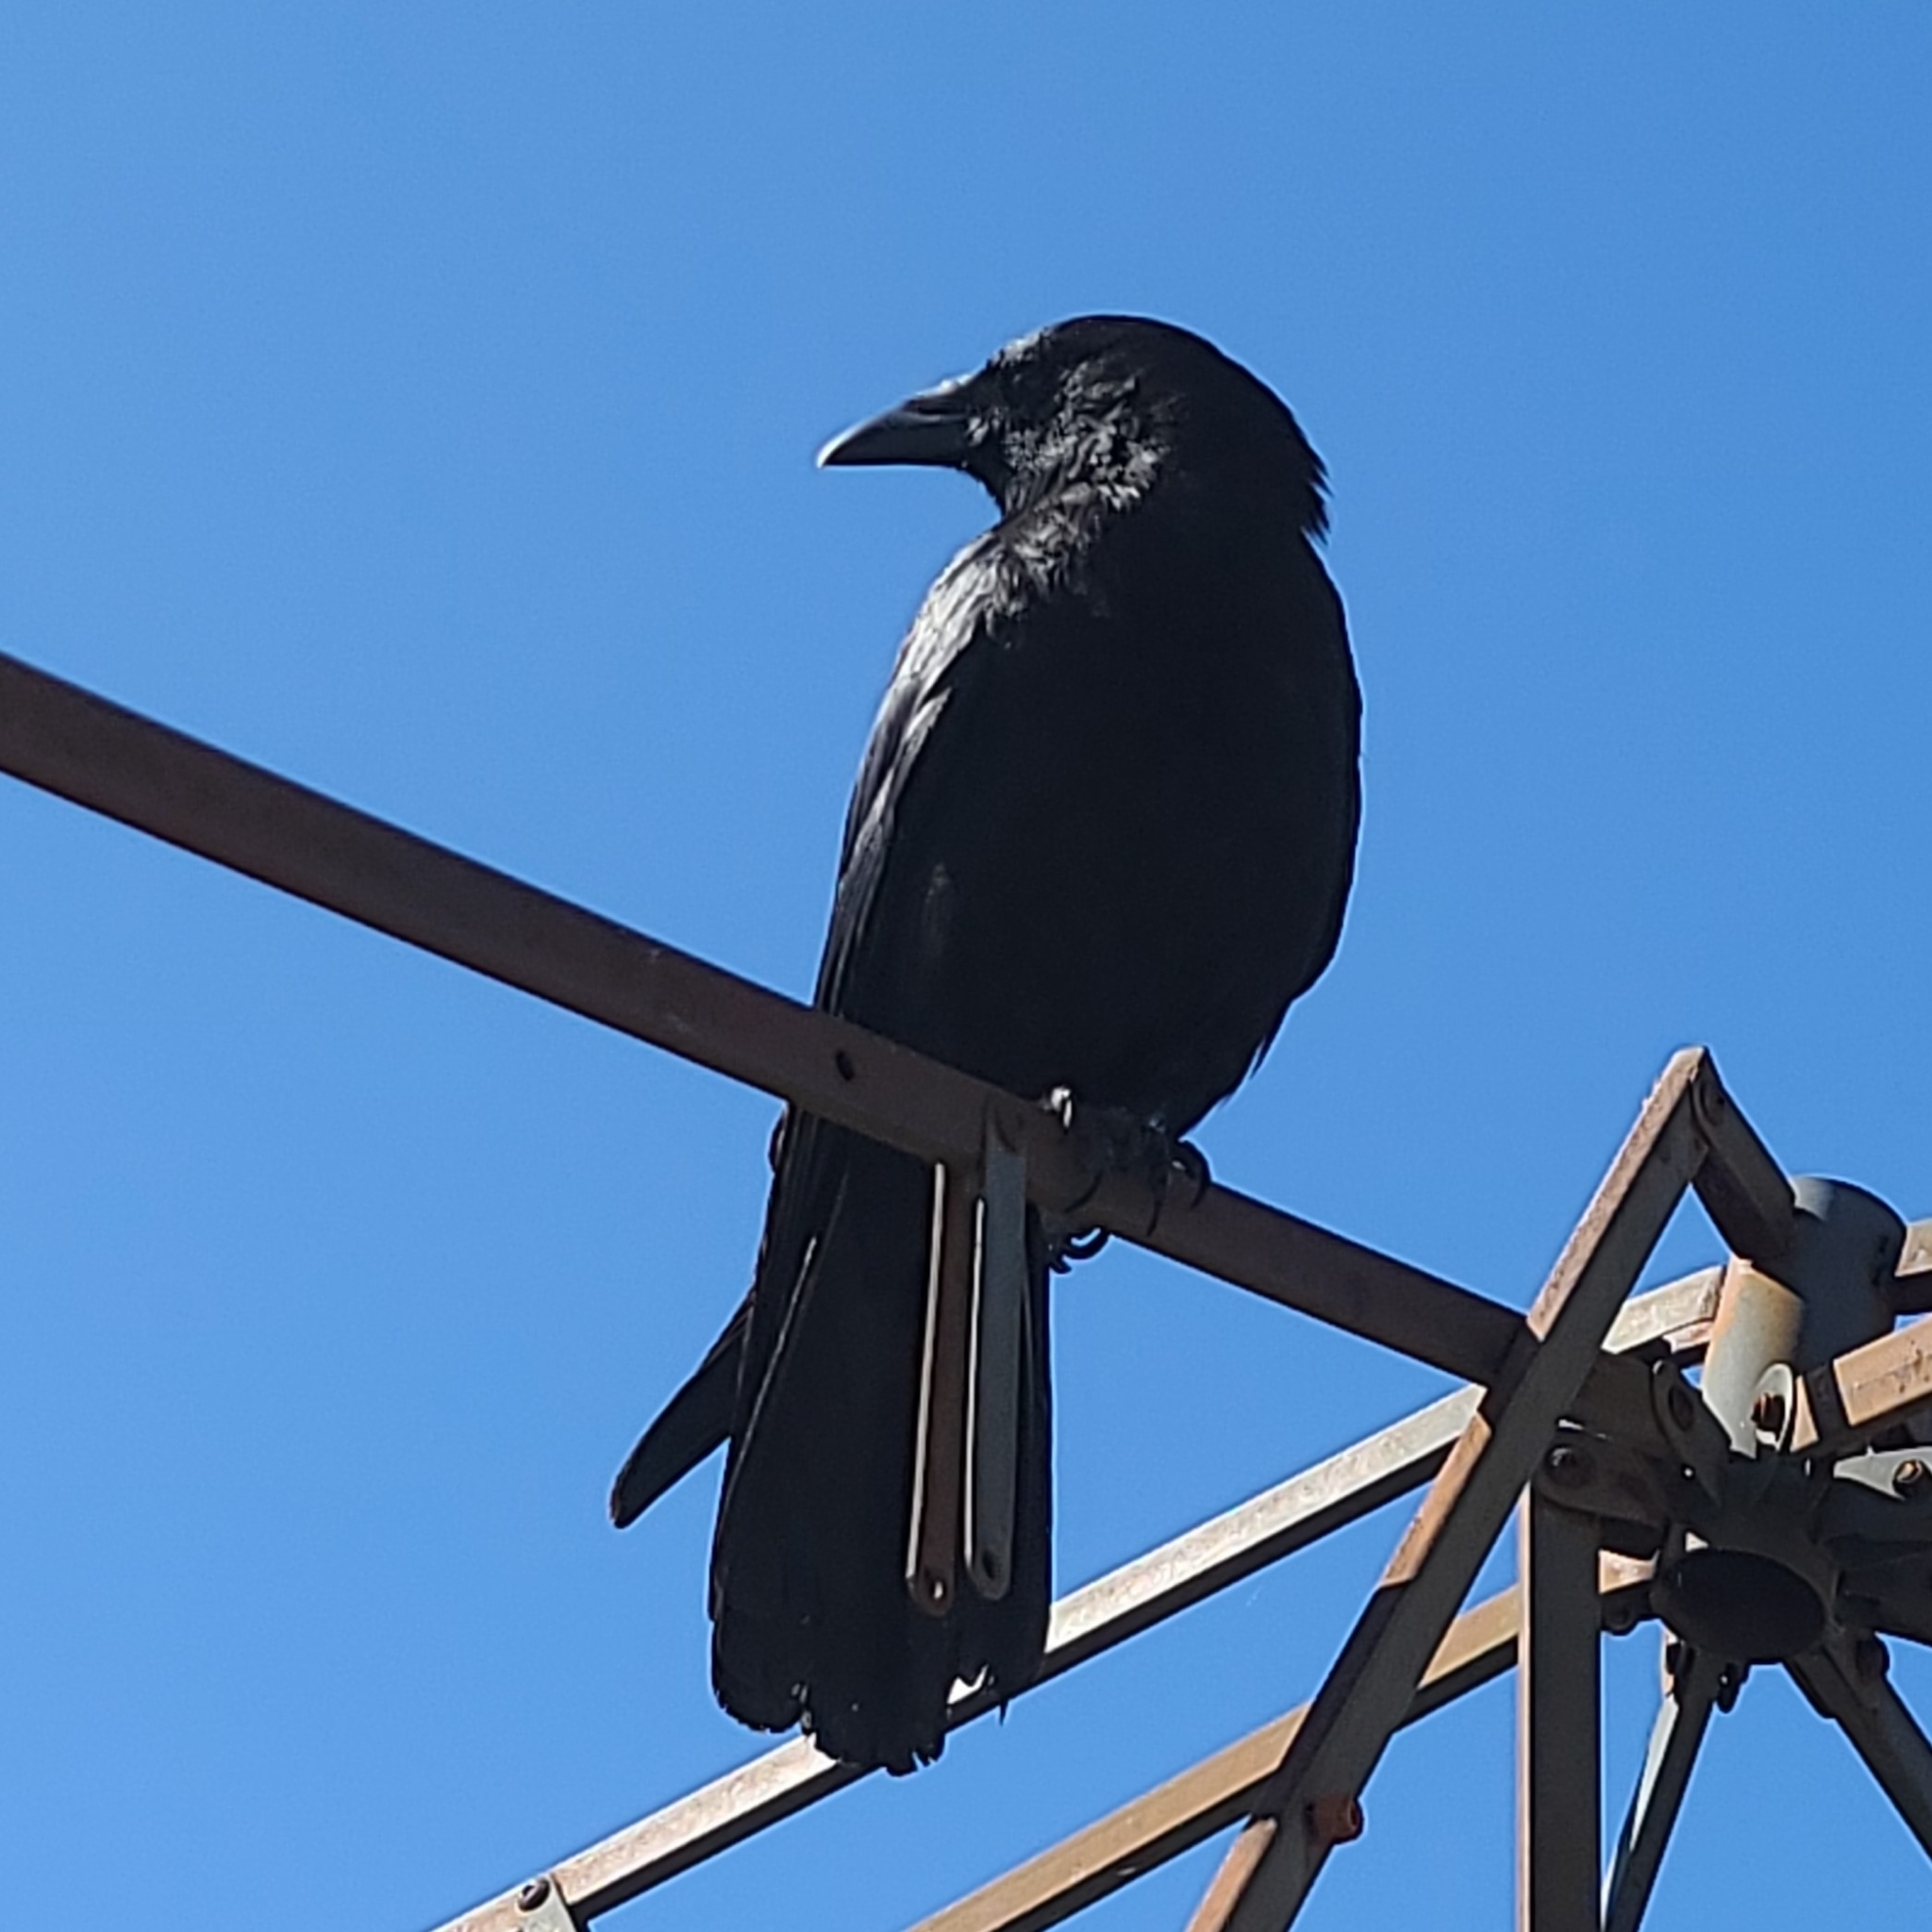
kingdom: Animalia
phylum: Chordata
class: Aves
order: Passeriformes
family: Corvidae
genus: Corvus
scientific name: Corvus brachyrhynchos
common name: American crow
